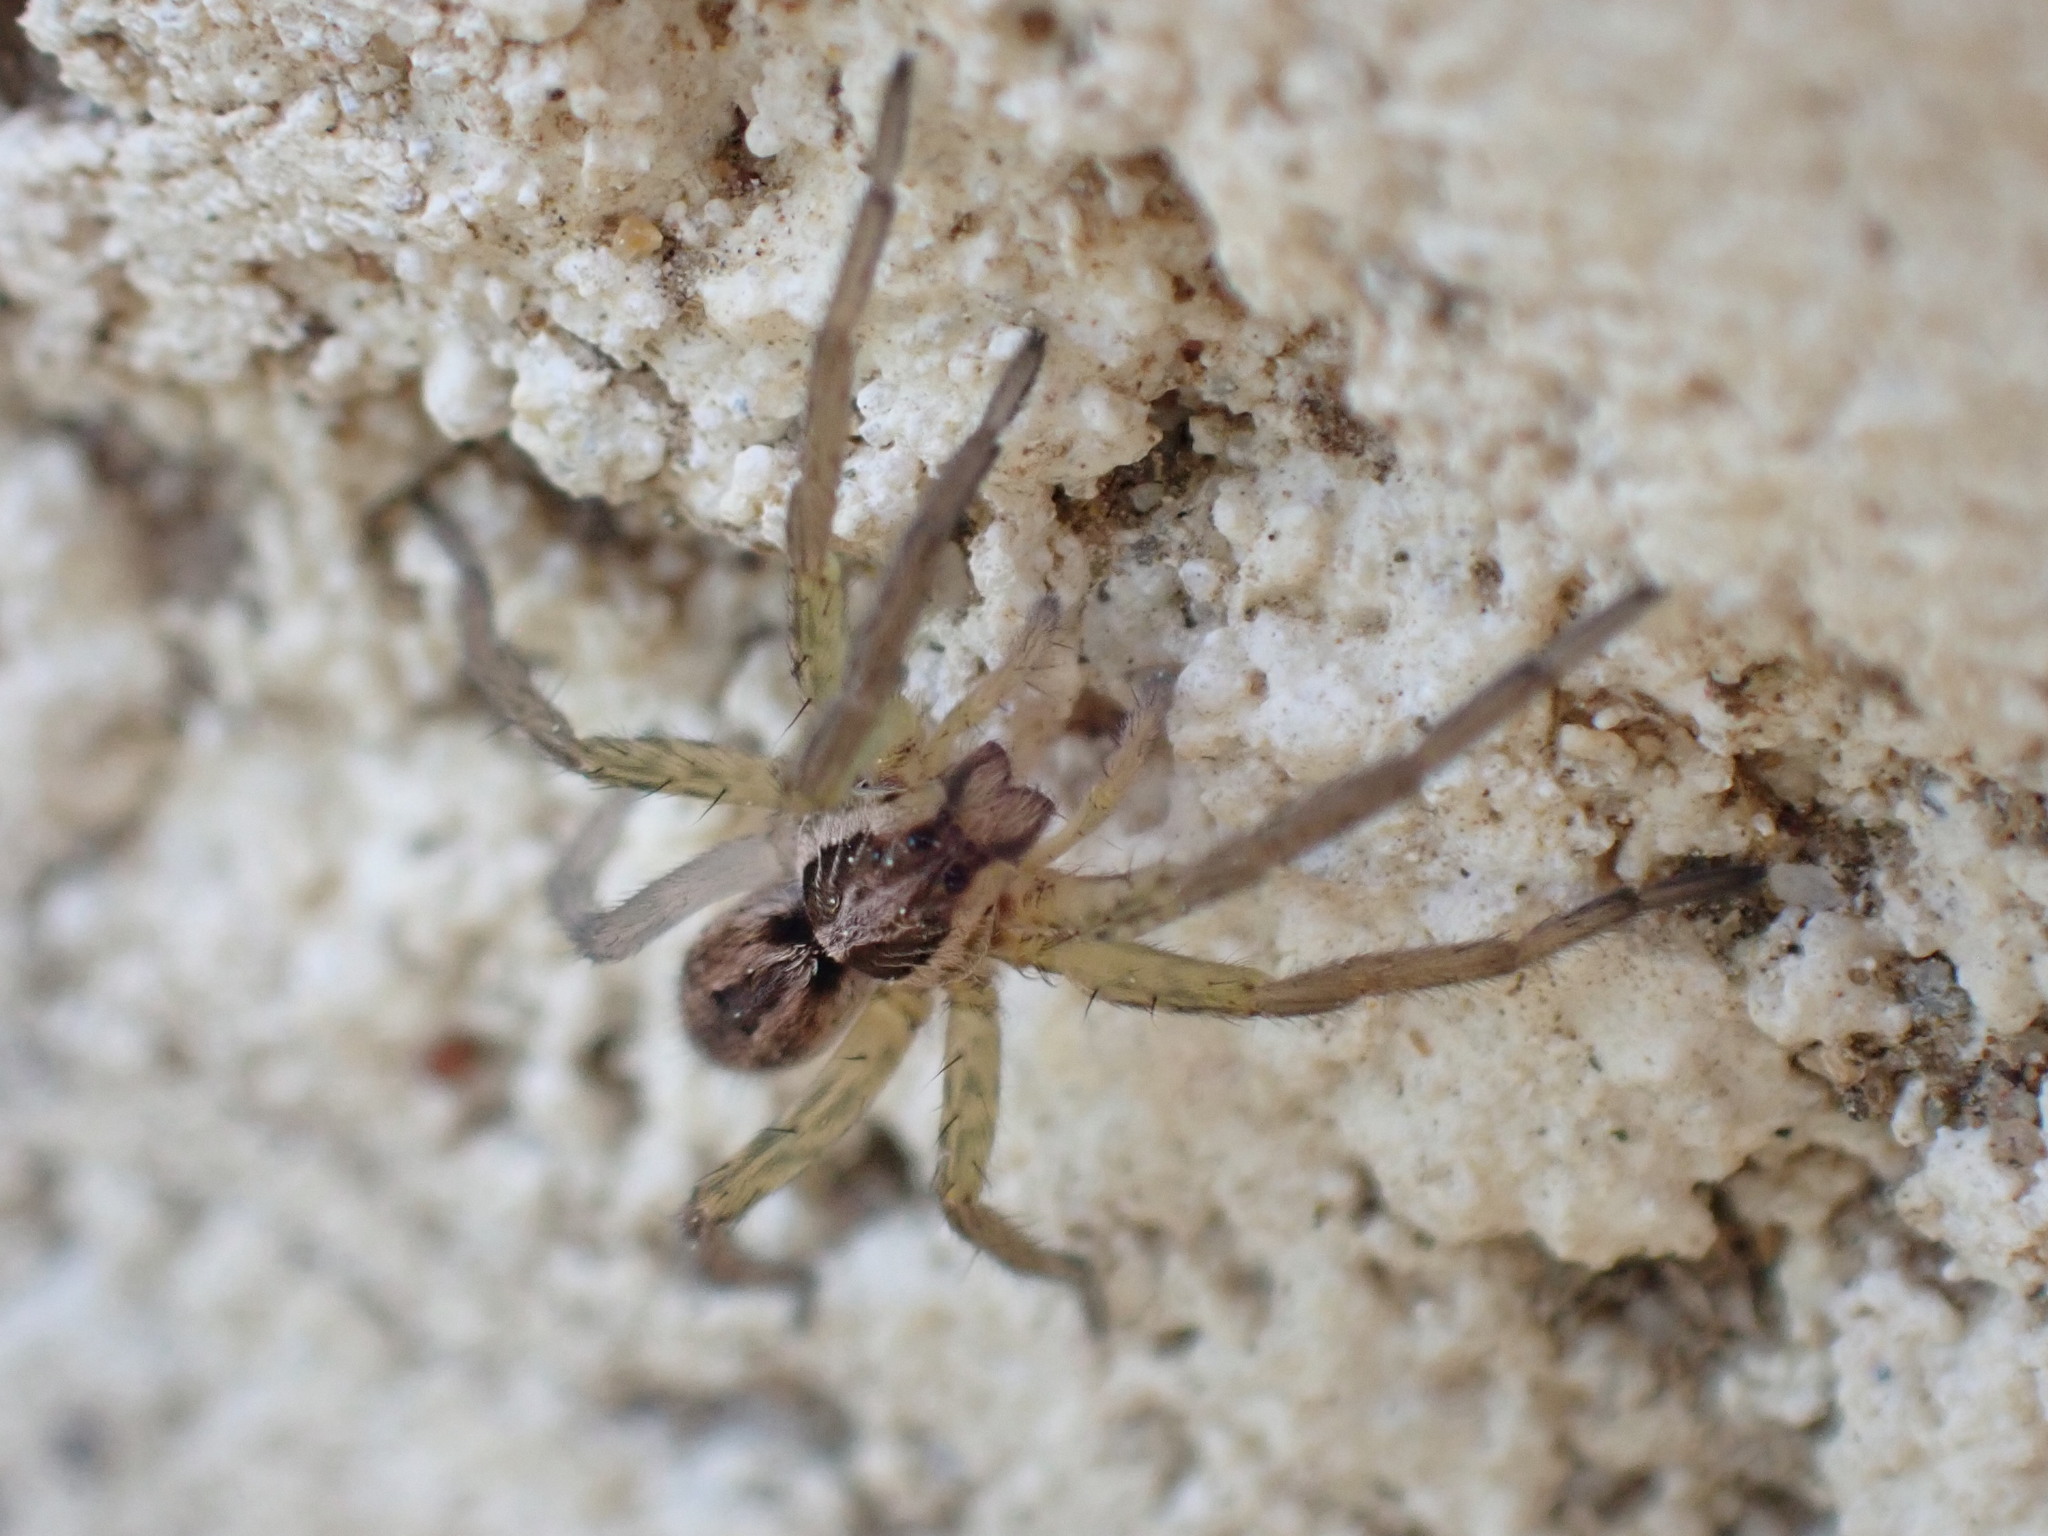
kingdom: Animalia
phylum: Arthropoda
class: Arachnida
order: Araneae
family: Lycosidae
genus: Hogna
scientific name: Hogna radiata
